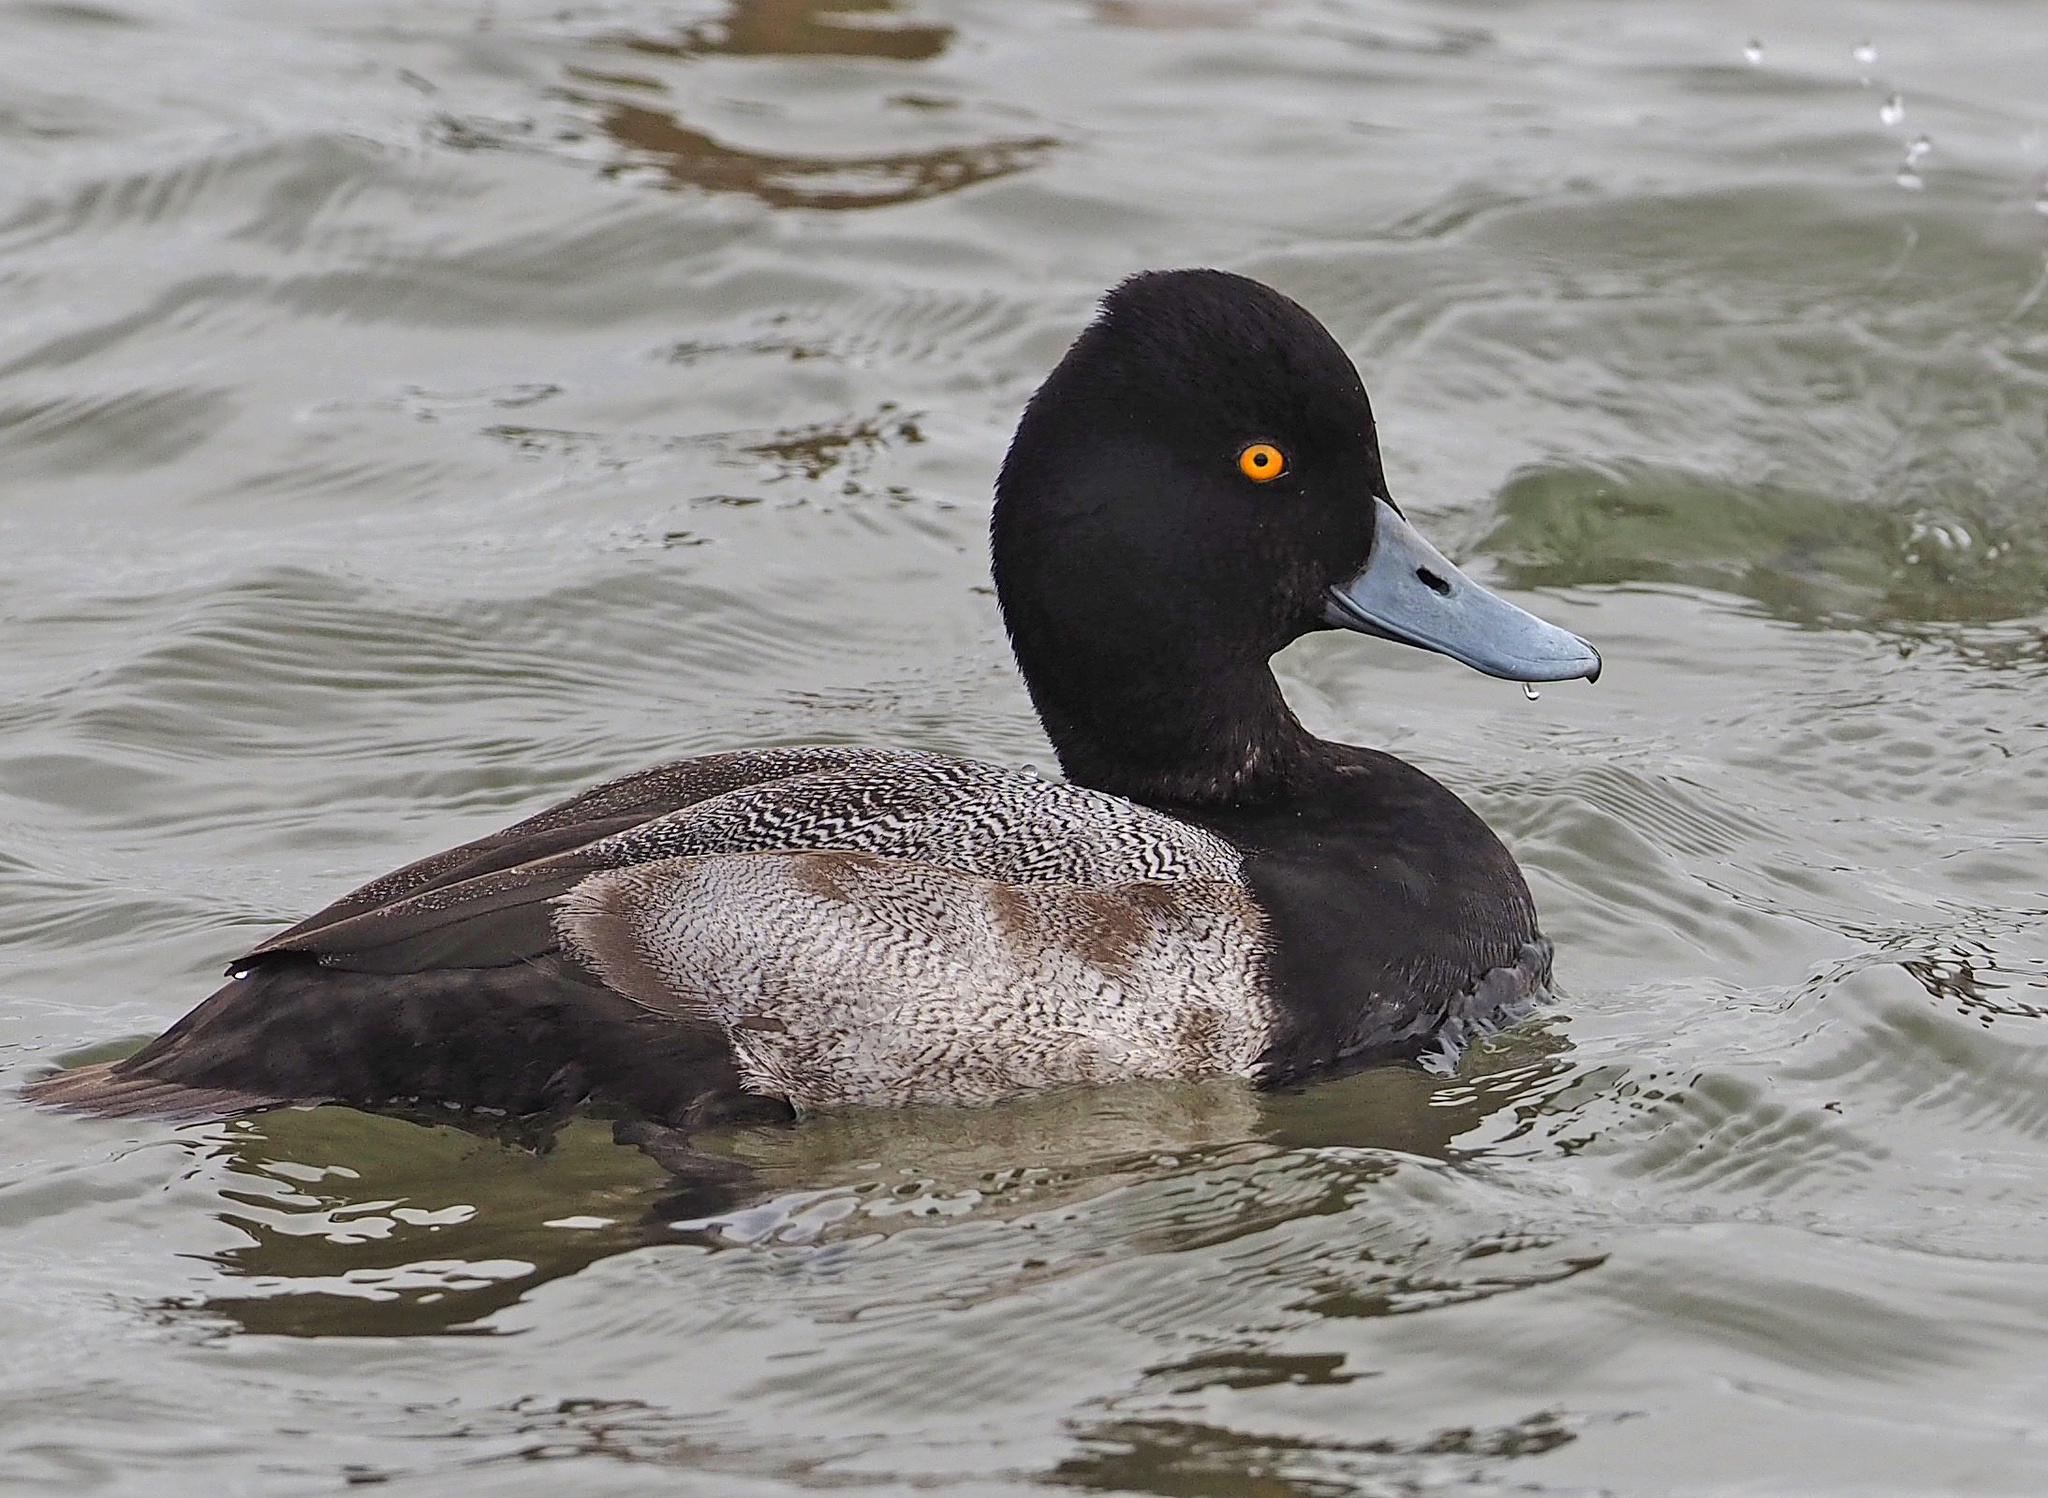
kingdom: Animalia
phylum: Chordata
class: Aves
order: Anseriformes
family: Anatidae
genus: Aythya
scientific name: Aythya affinis
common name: Lesser scaup
